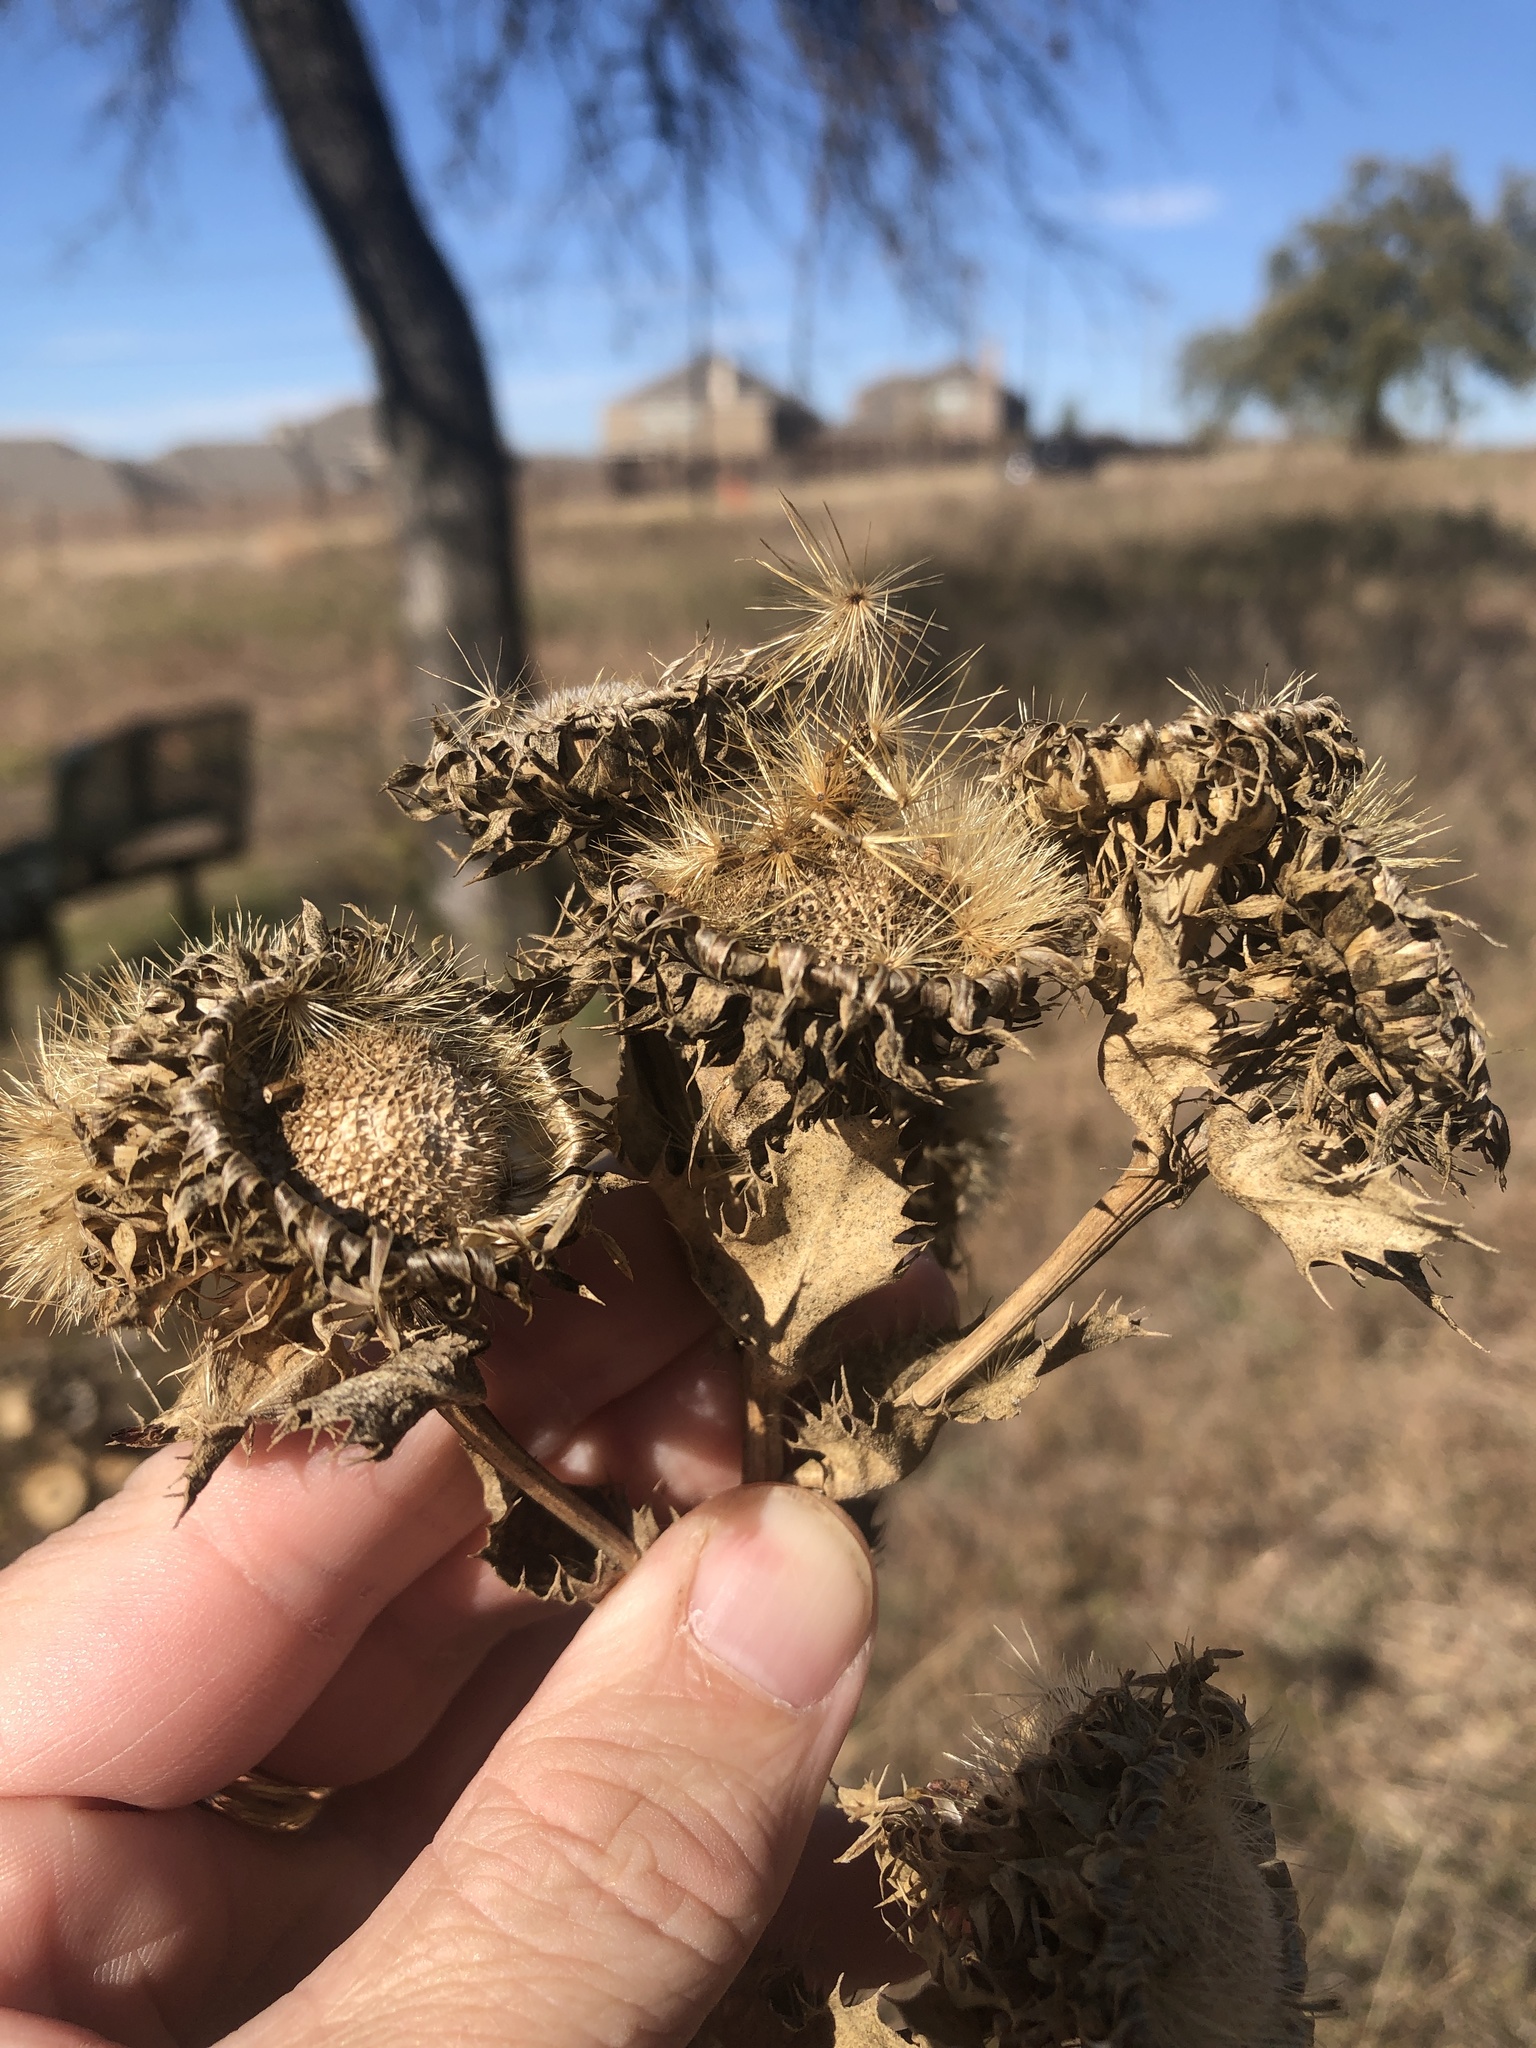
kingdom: Plantae
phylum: Tracheophyta
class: Magnoliopsida
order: Asterales
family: Asteraceae
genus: Grindelia
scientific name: Grindelia ciliata
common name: Goldenweed
